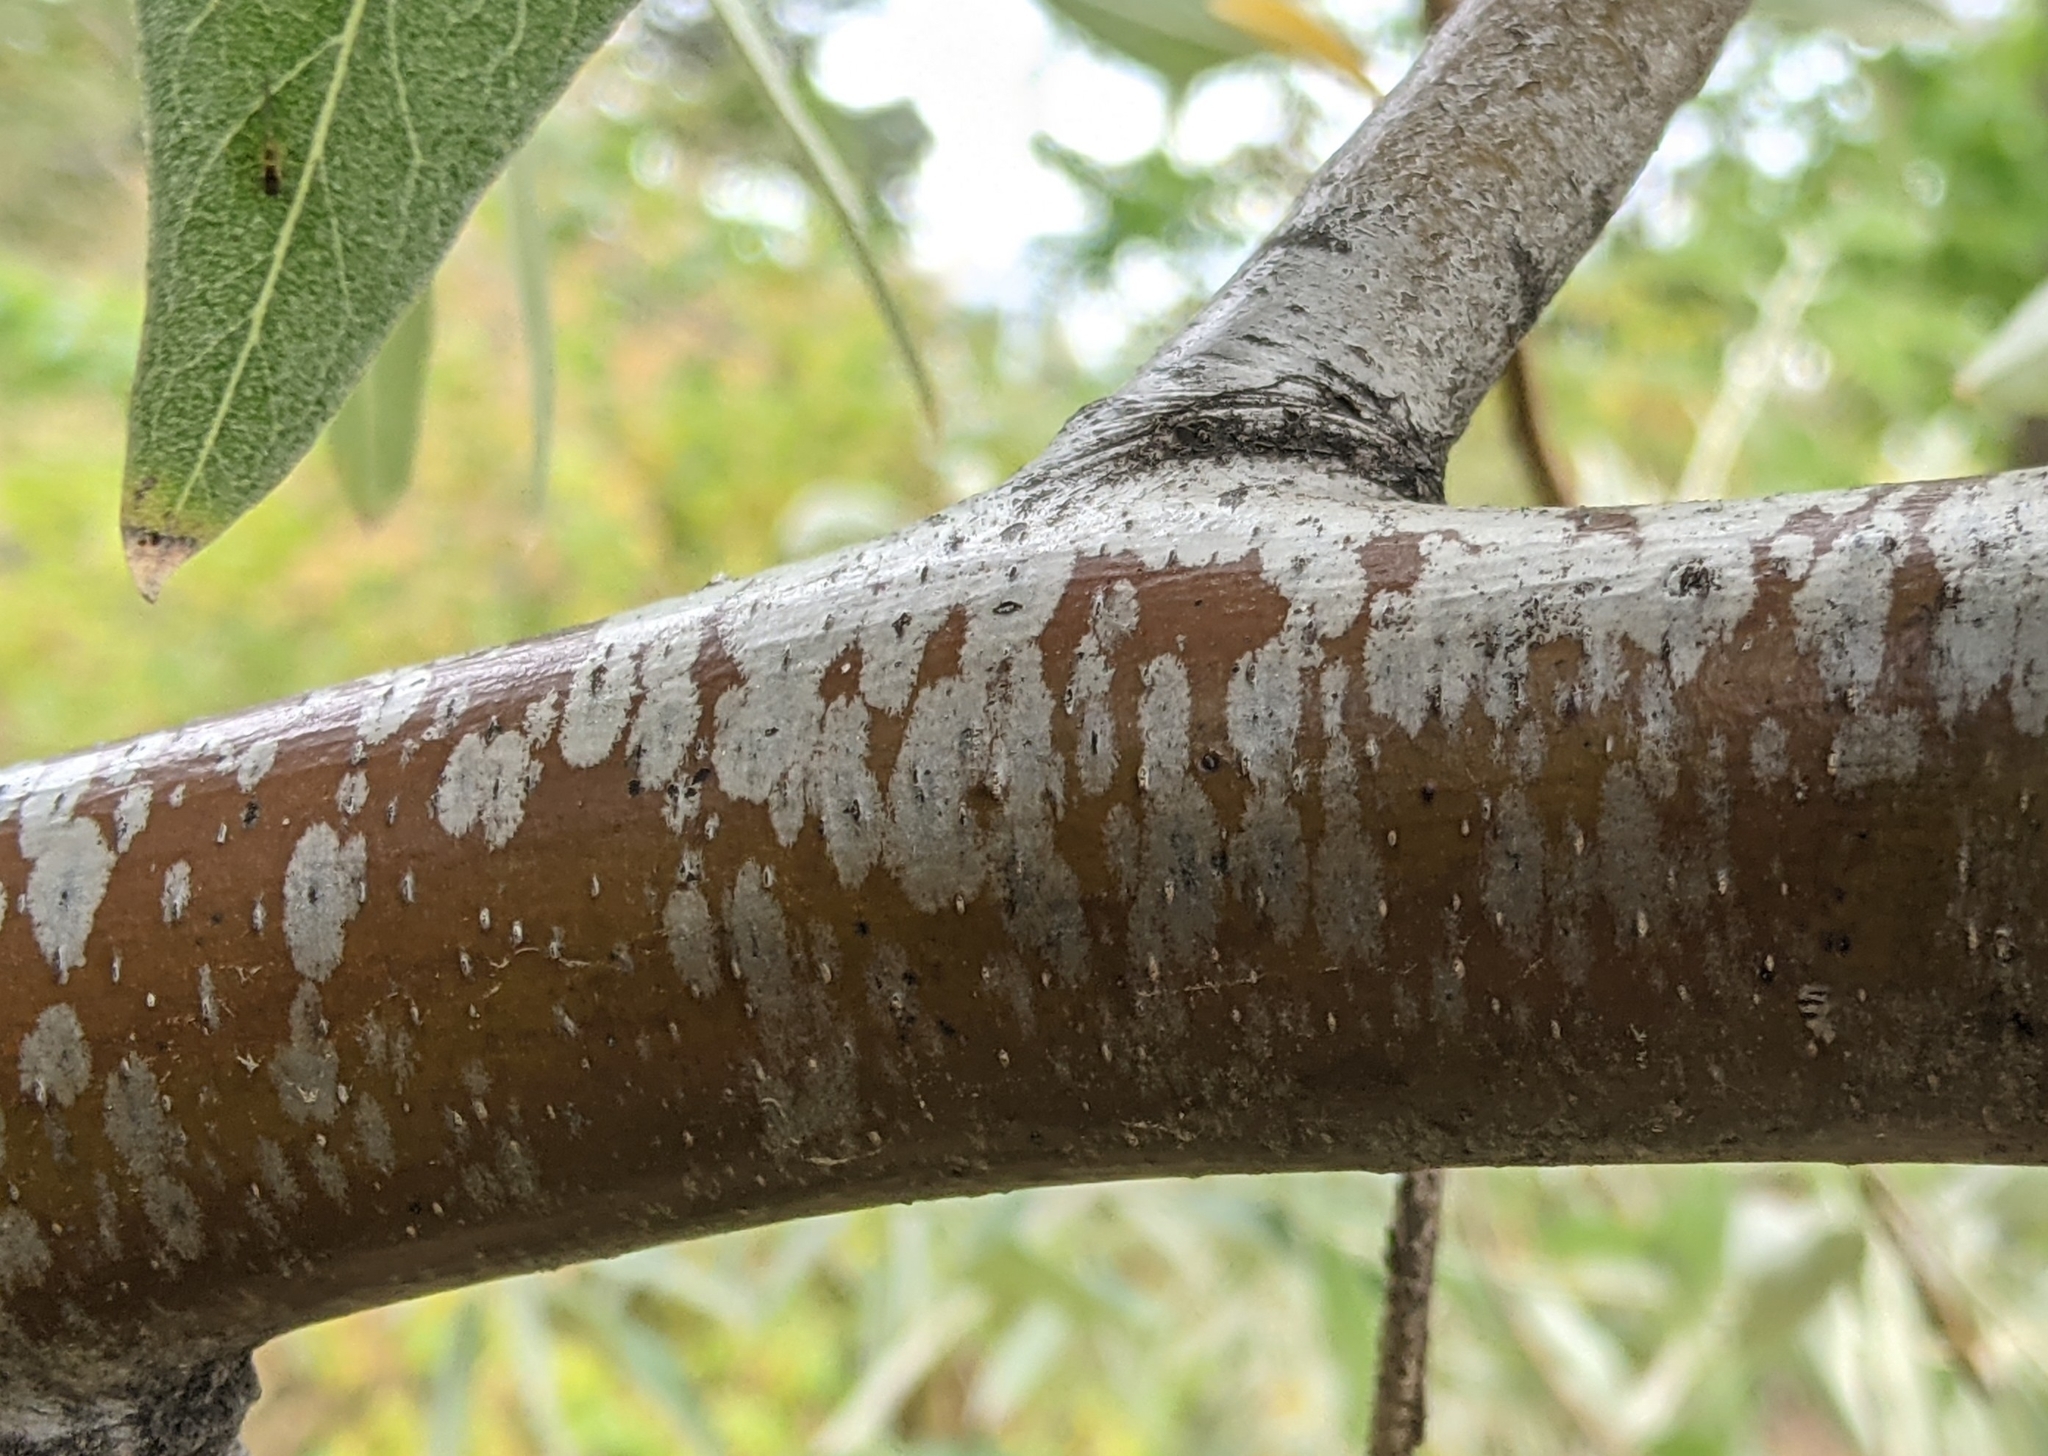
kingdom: Plantae
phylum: Tracheophyta
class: Magnoliopsida
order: Rosales
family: Elaeagnaceae
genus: Elaeagnus
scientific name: Elaeagnus angustifolia
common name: Russian olive
